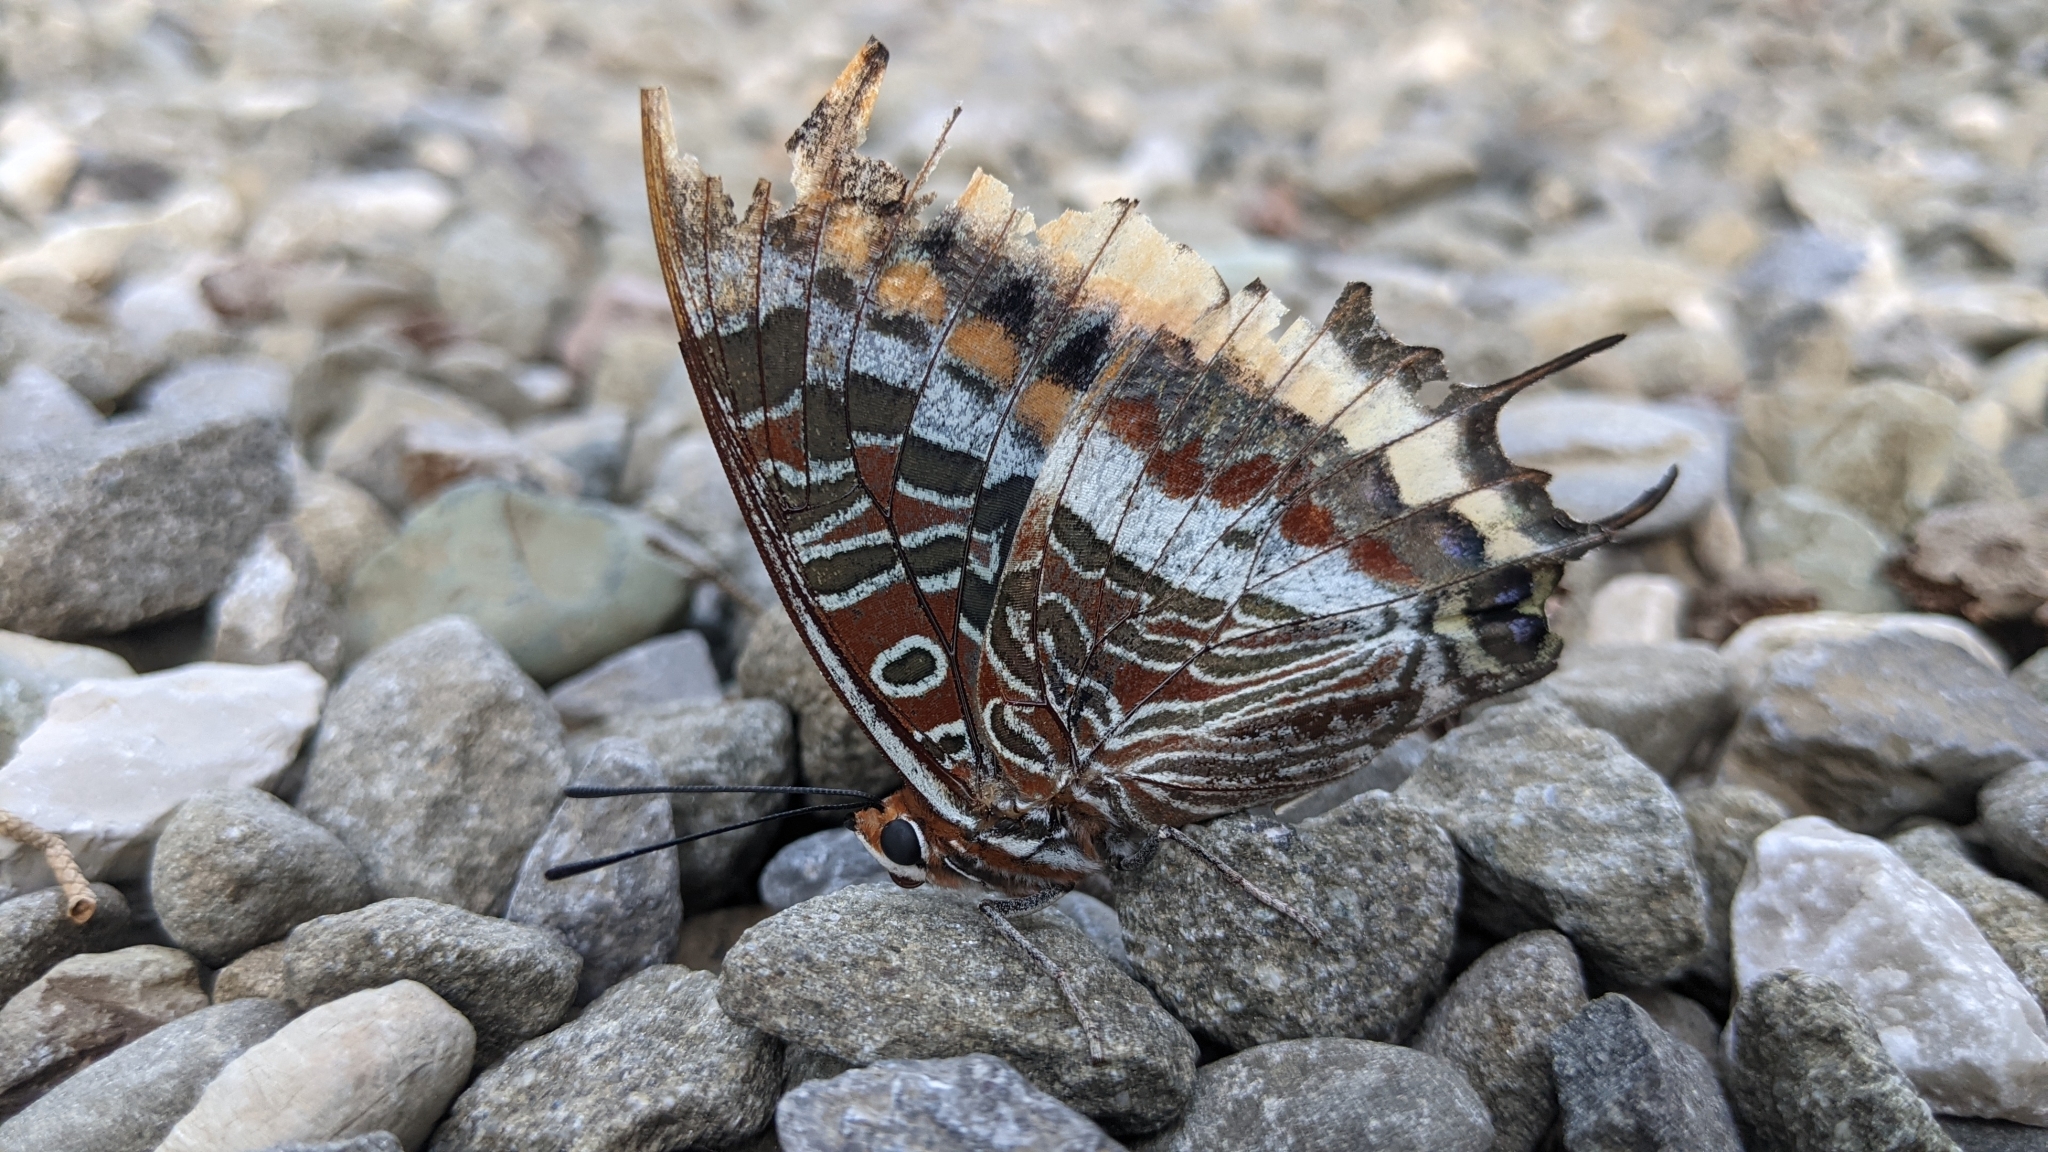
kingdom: Animalia
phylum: Arthropoda
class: Insecta
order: Lepidoptera
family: Nymphalidae
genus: Charaxes
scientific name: Charaxes jasius
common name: Two tailed pasha
